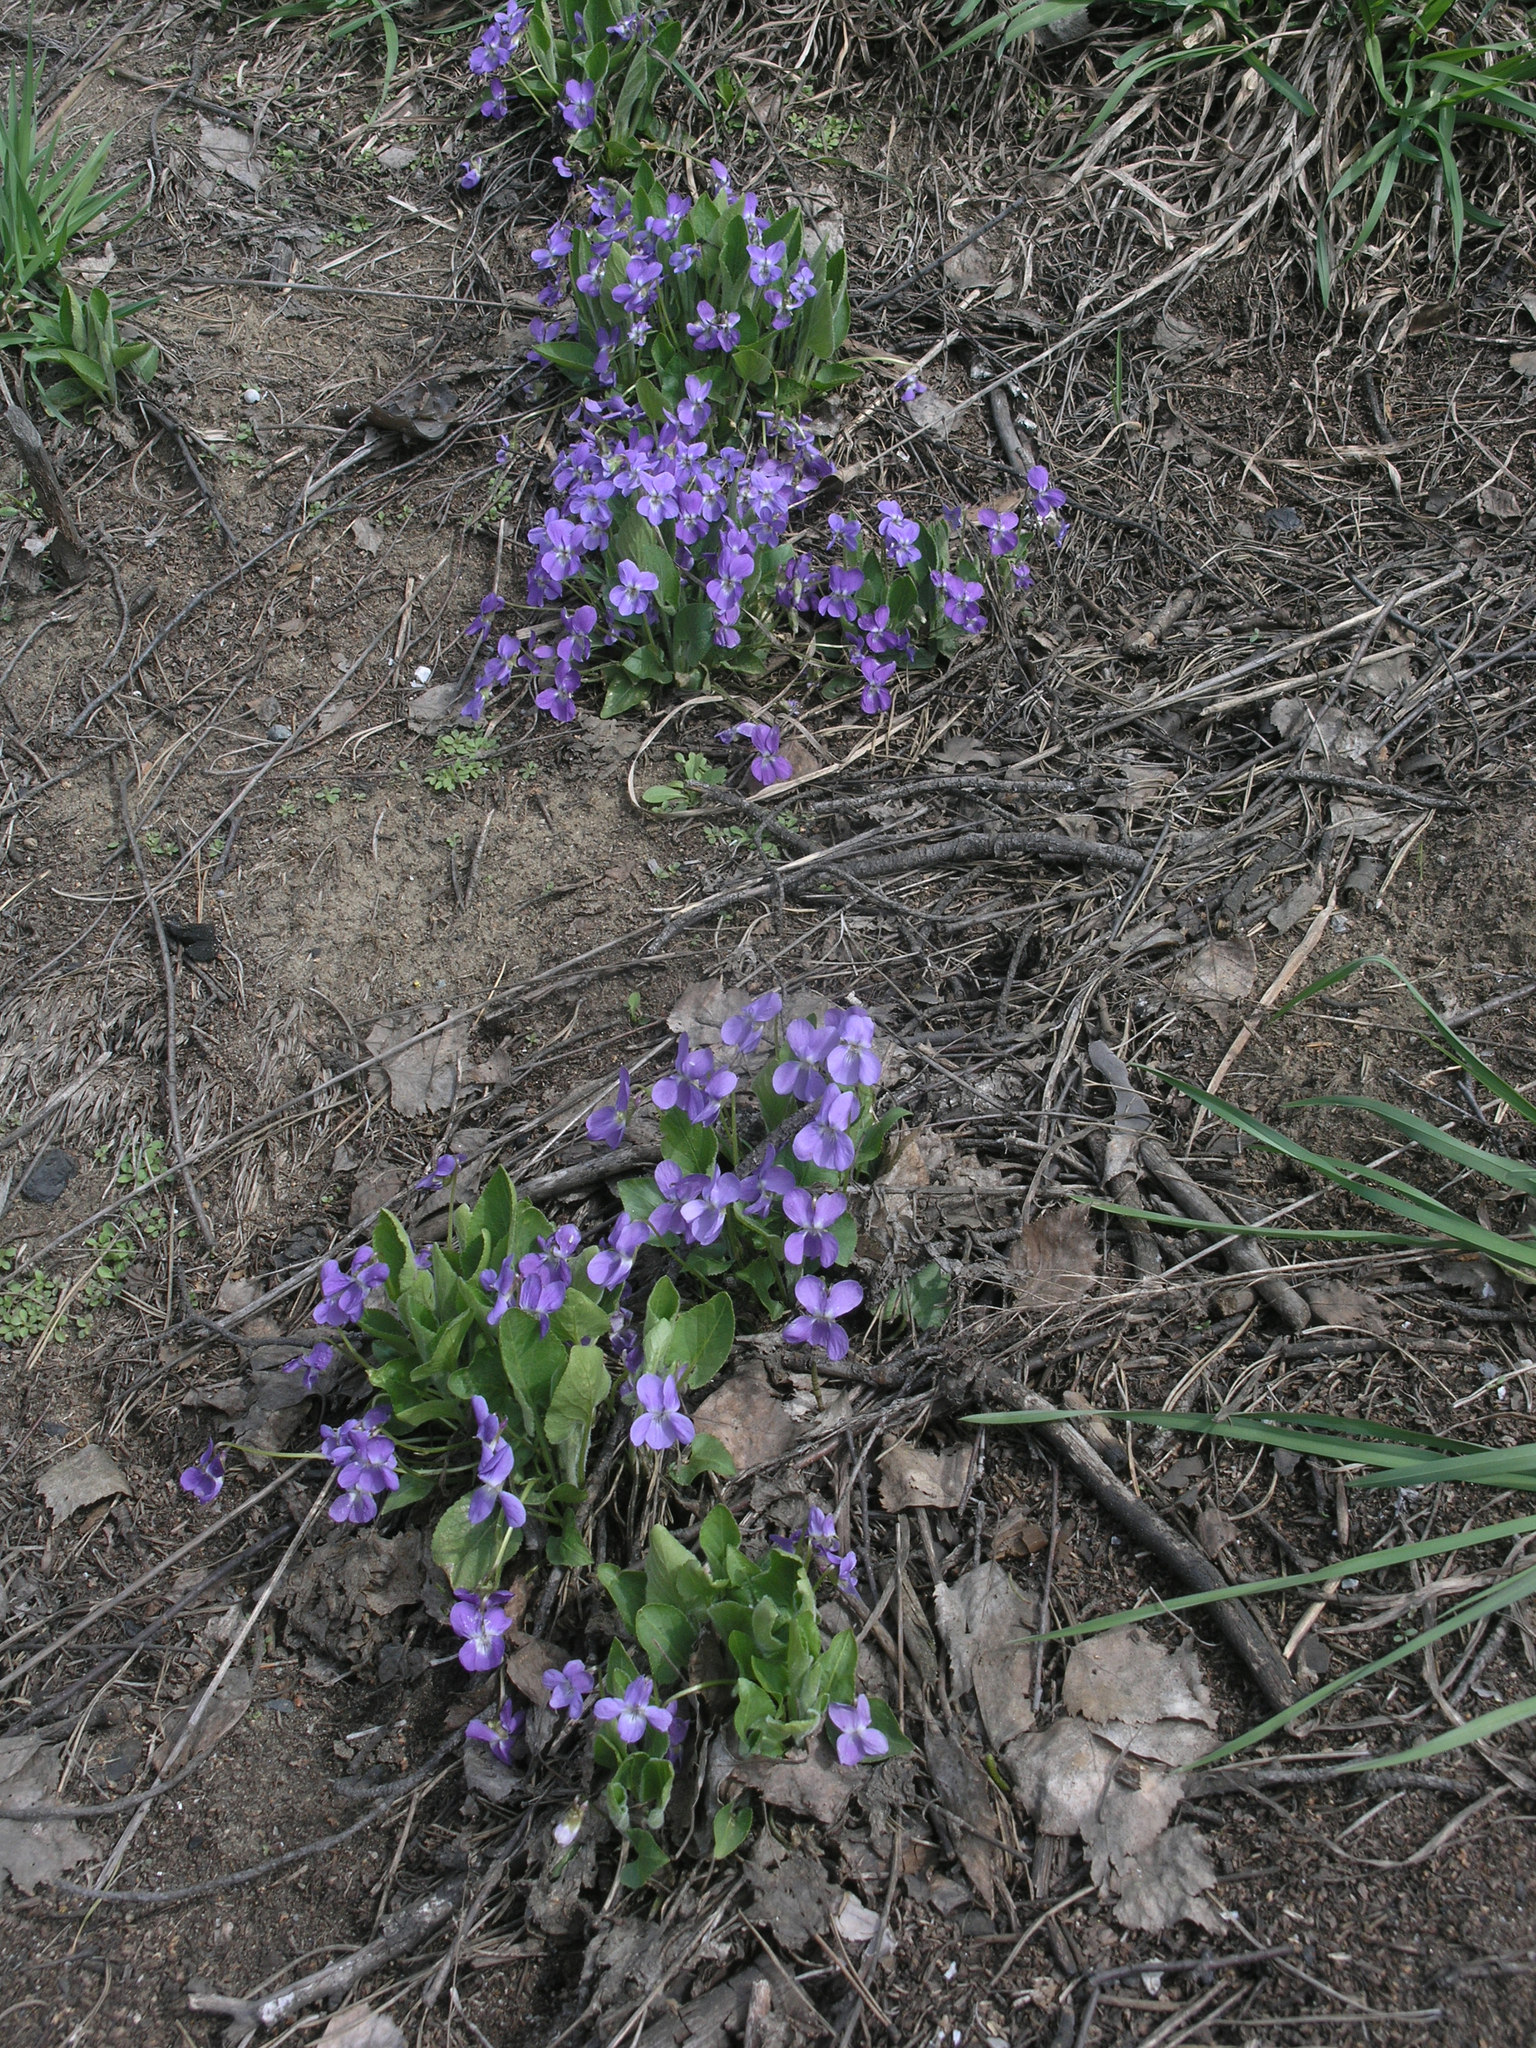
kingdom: Plantae
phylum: Tracheophyta
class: Magnoliopsida
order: Malpighiales
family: Violaceae
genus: Viola
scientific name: Viola hirta
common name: Hairy violet
